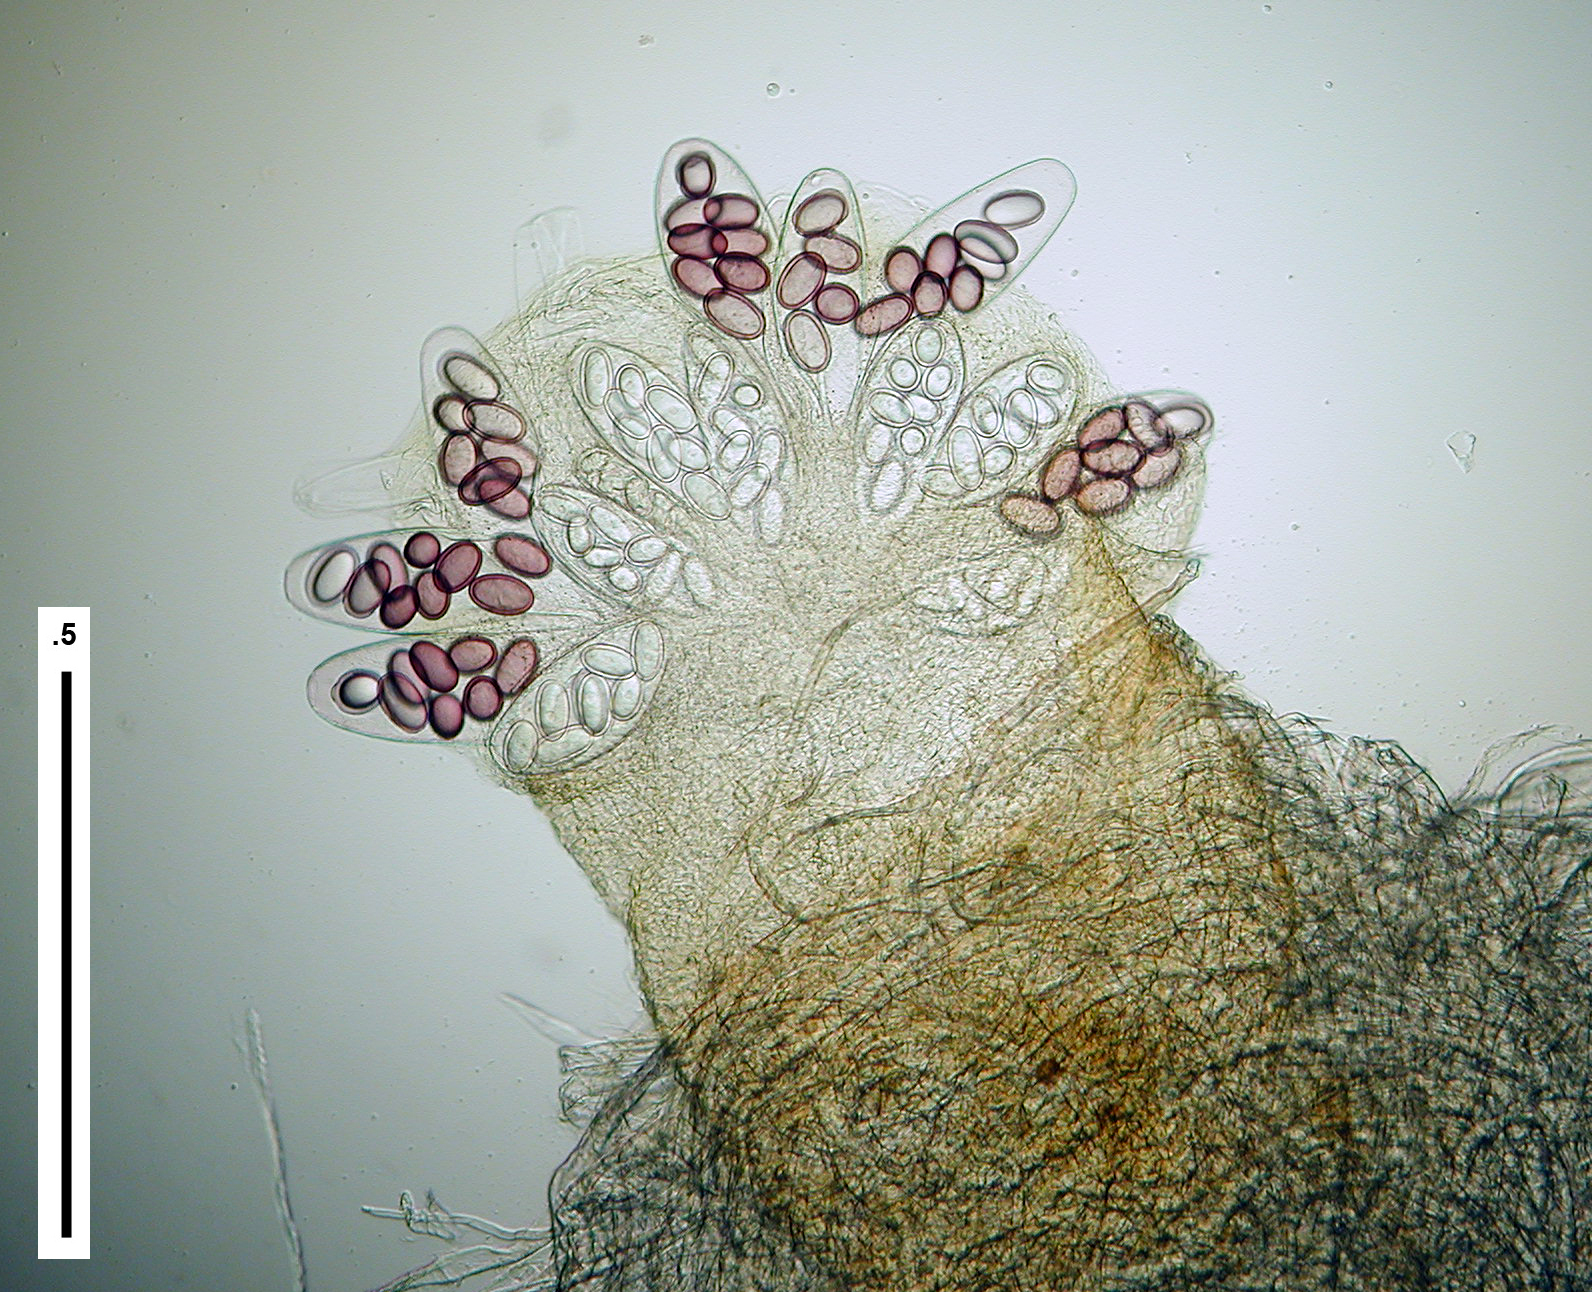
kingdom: Fungi
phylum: Ascomycota
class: Pezizomycetes
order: Pezizales
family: Ascobolaceae
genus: Ascobolus
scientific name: Ascobolus immersus
